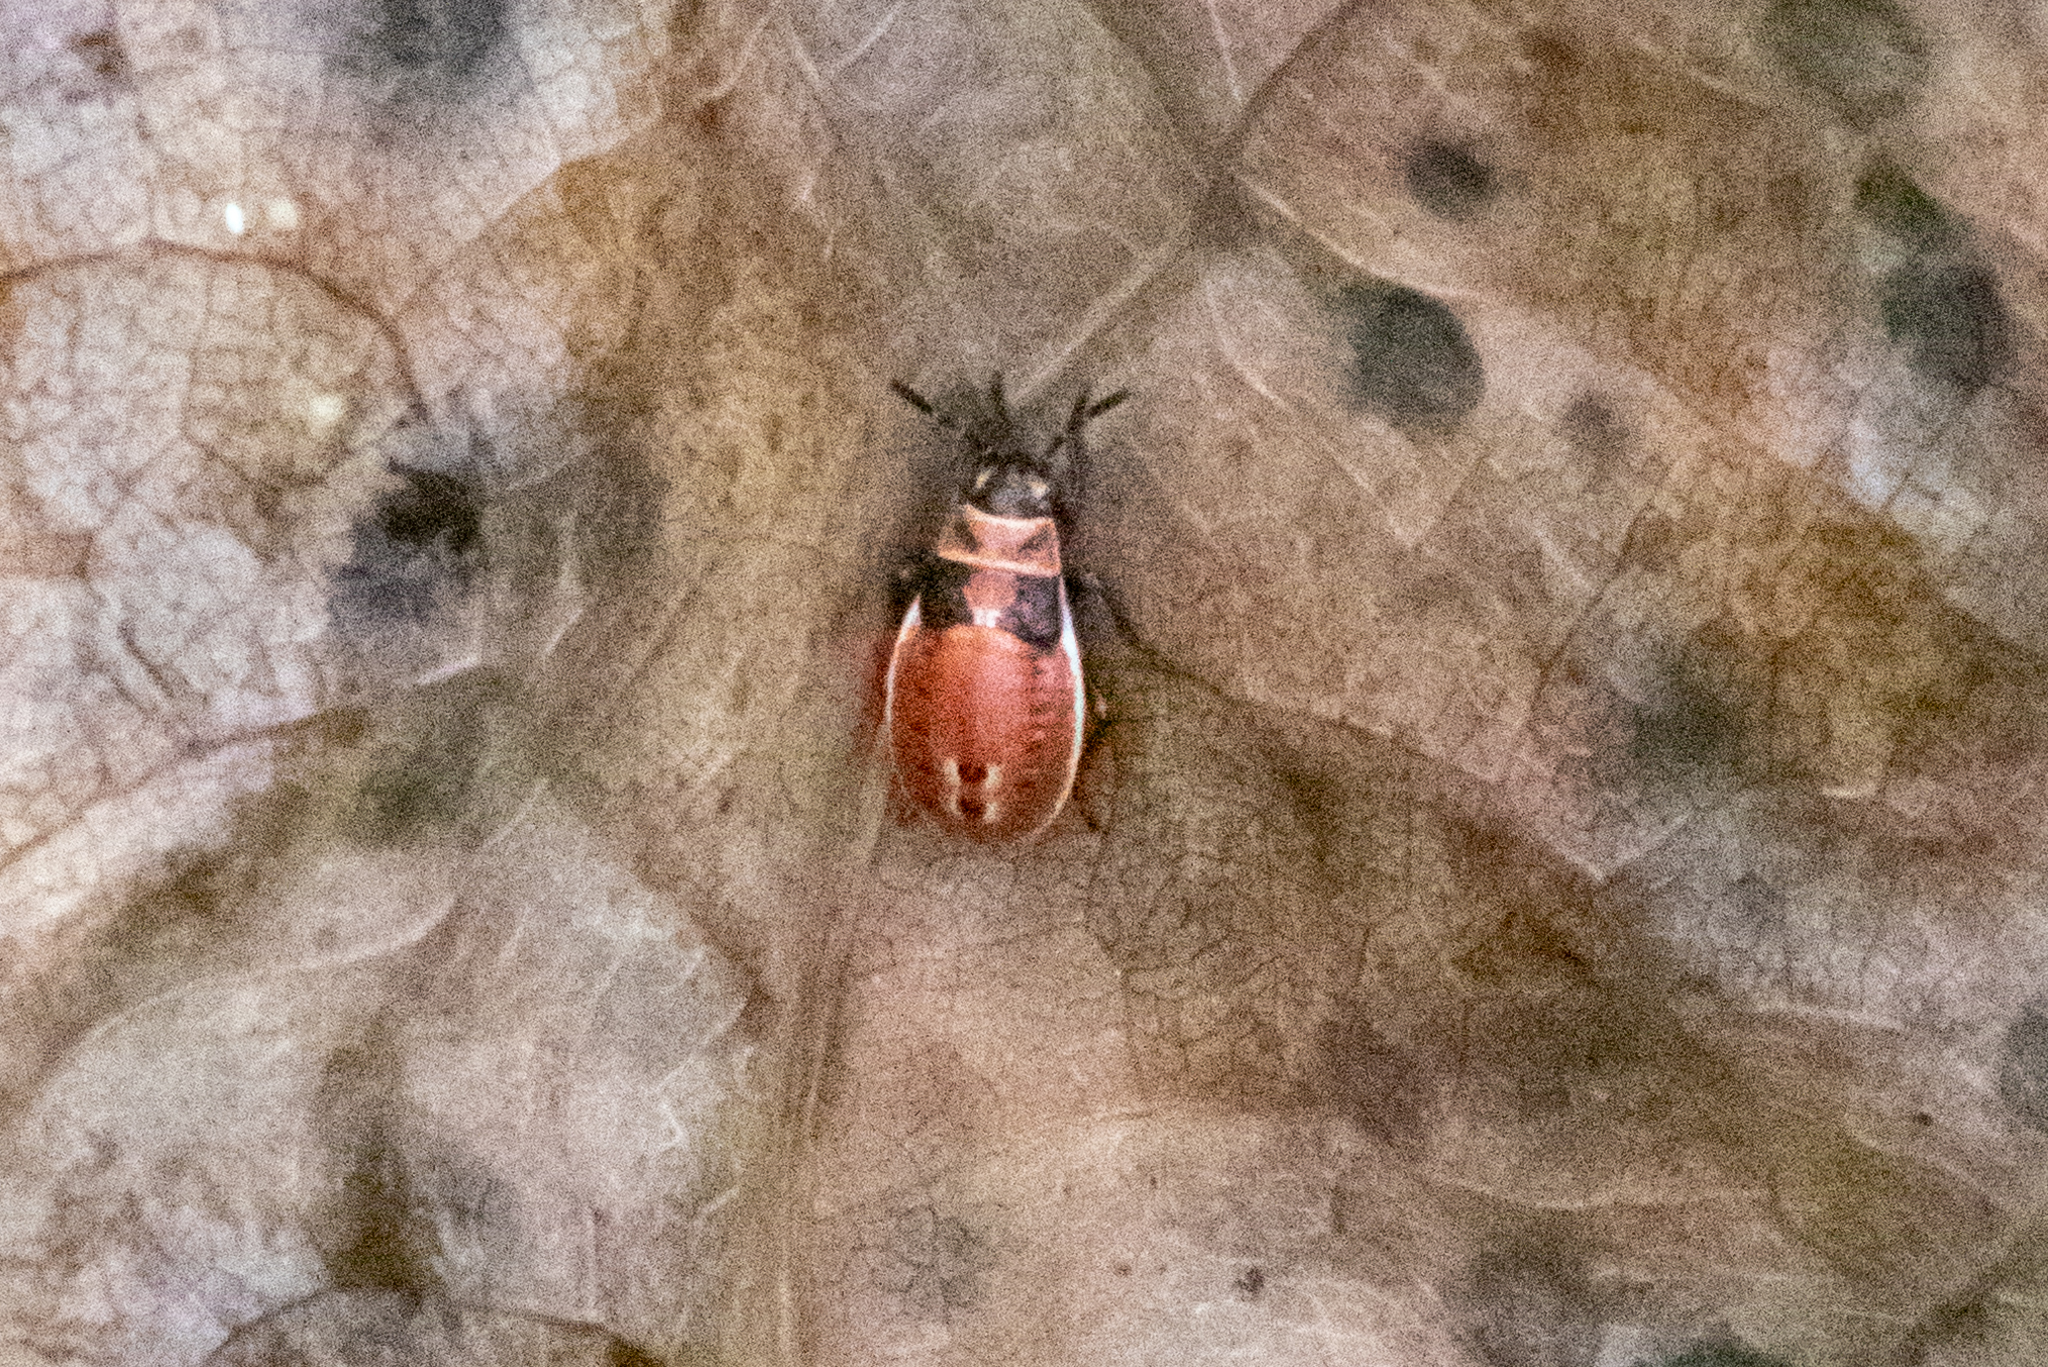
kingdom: Animalia
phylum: Arthropoda
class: Insecta
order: Hemiptera
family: Lygaeidae
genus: Lygaeus
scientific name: Lygaeus kalmii
